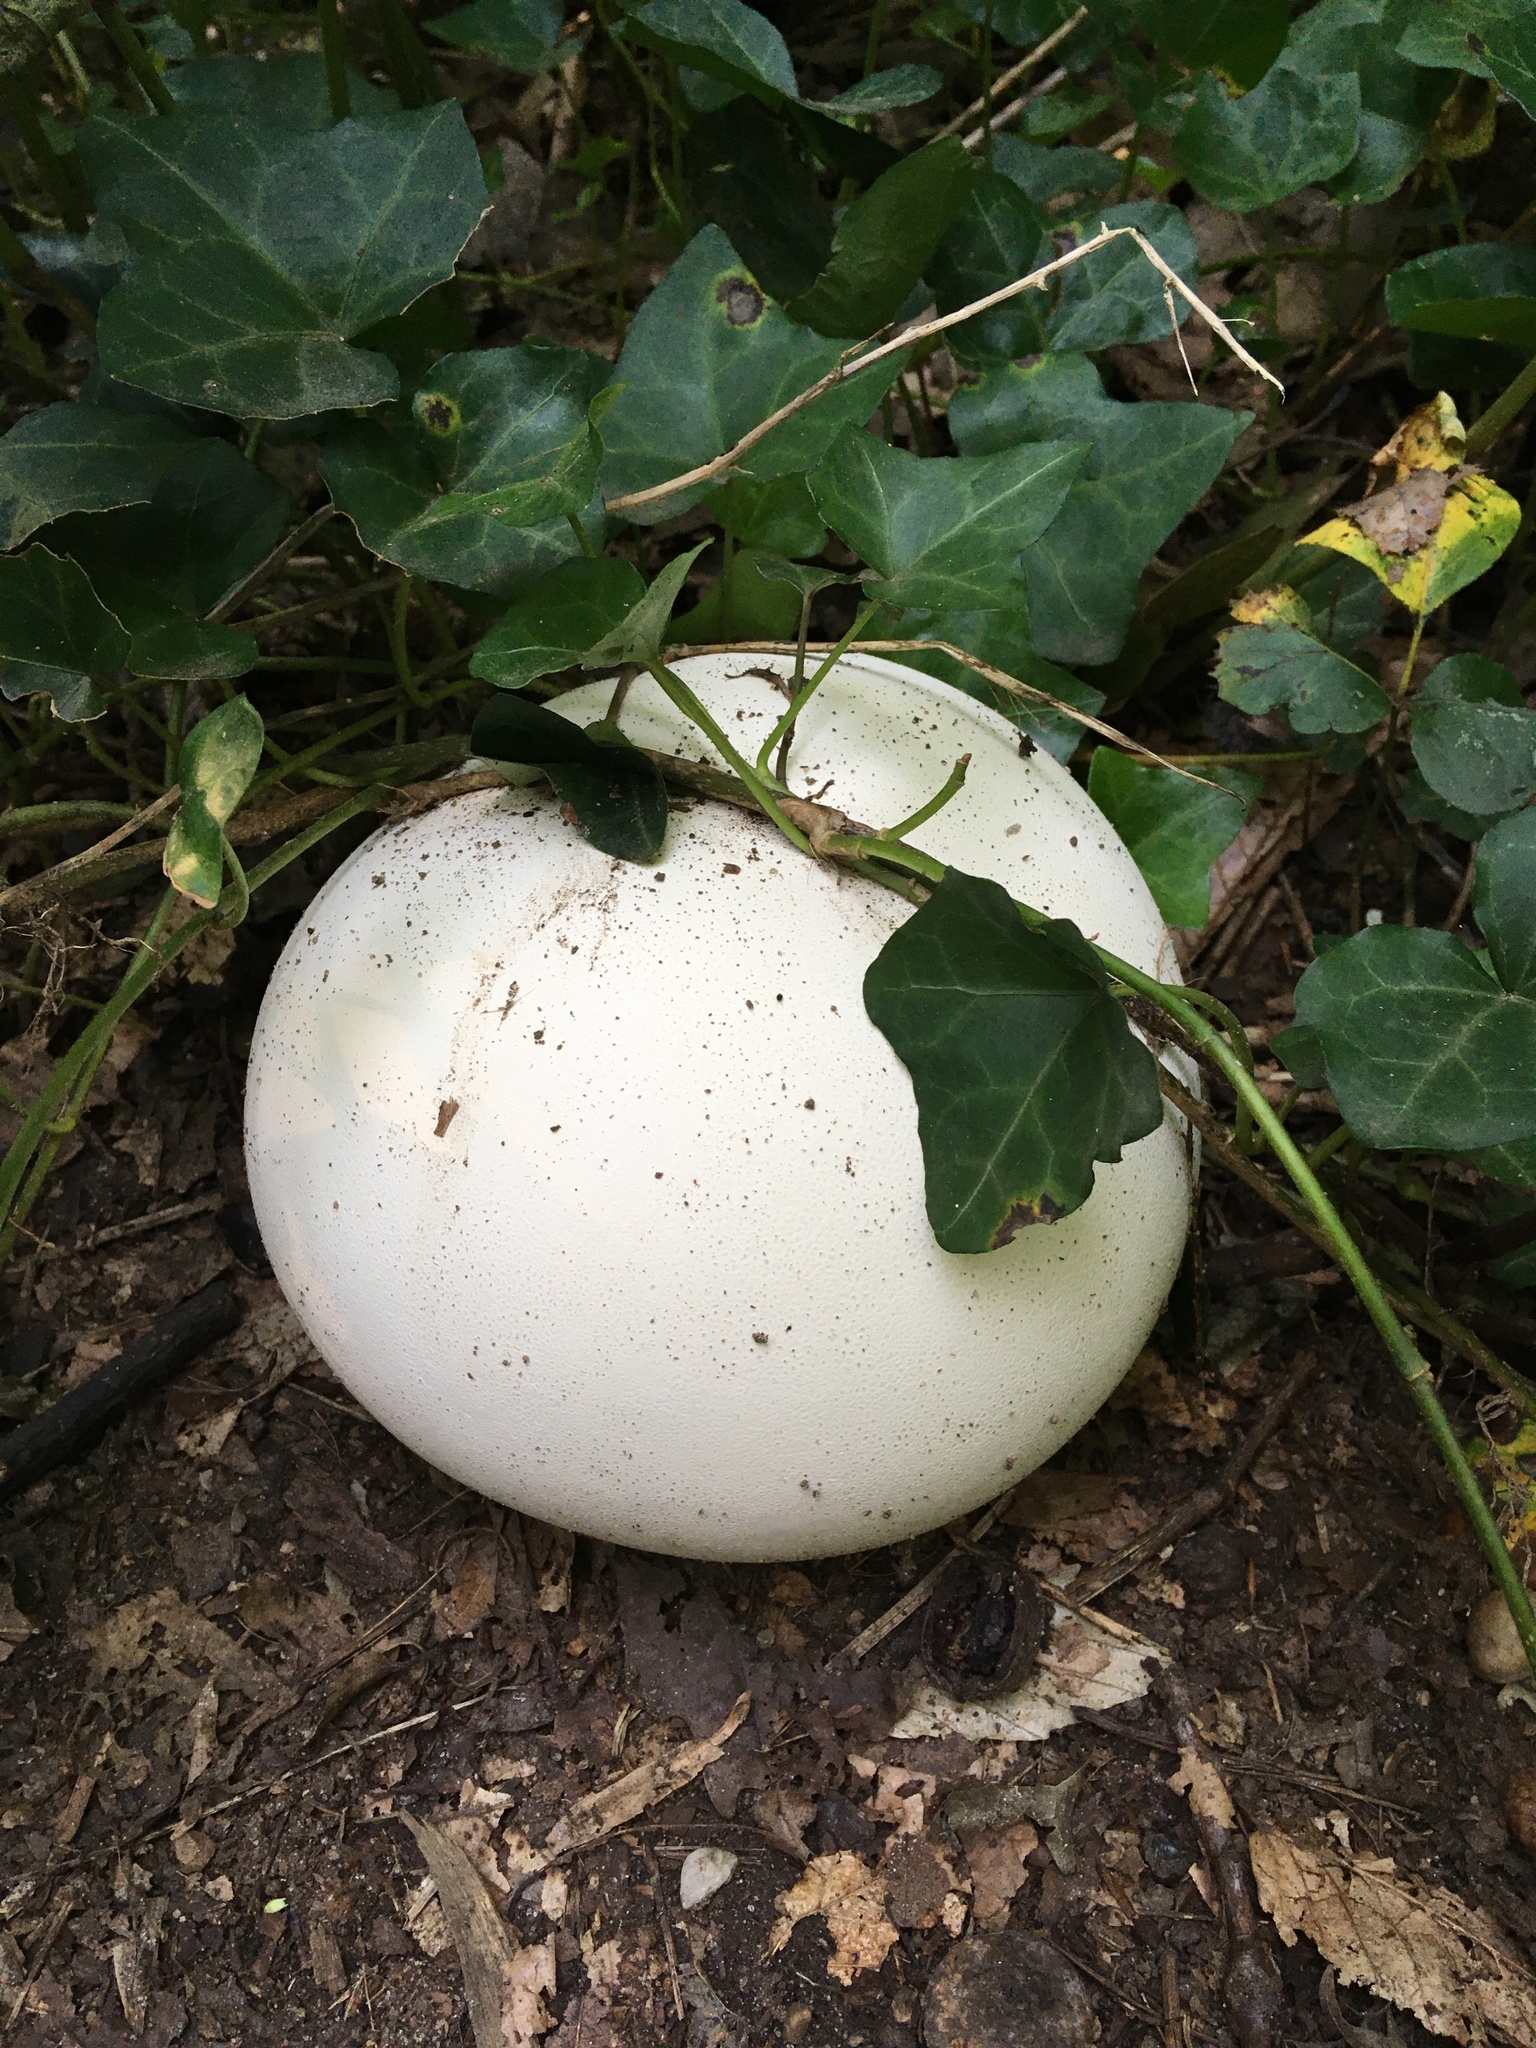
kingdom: Fungi
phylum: Basidiomycota
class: Agaricomycetes
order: Agaricales
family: Lycoperdaceae
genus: Calvatia
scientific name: Calvatia gigantea
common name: Giant puffball
